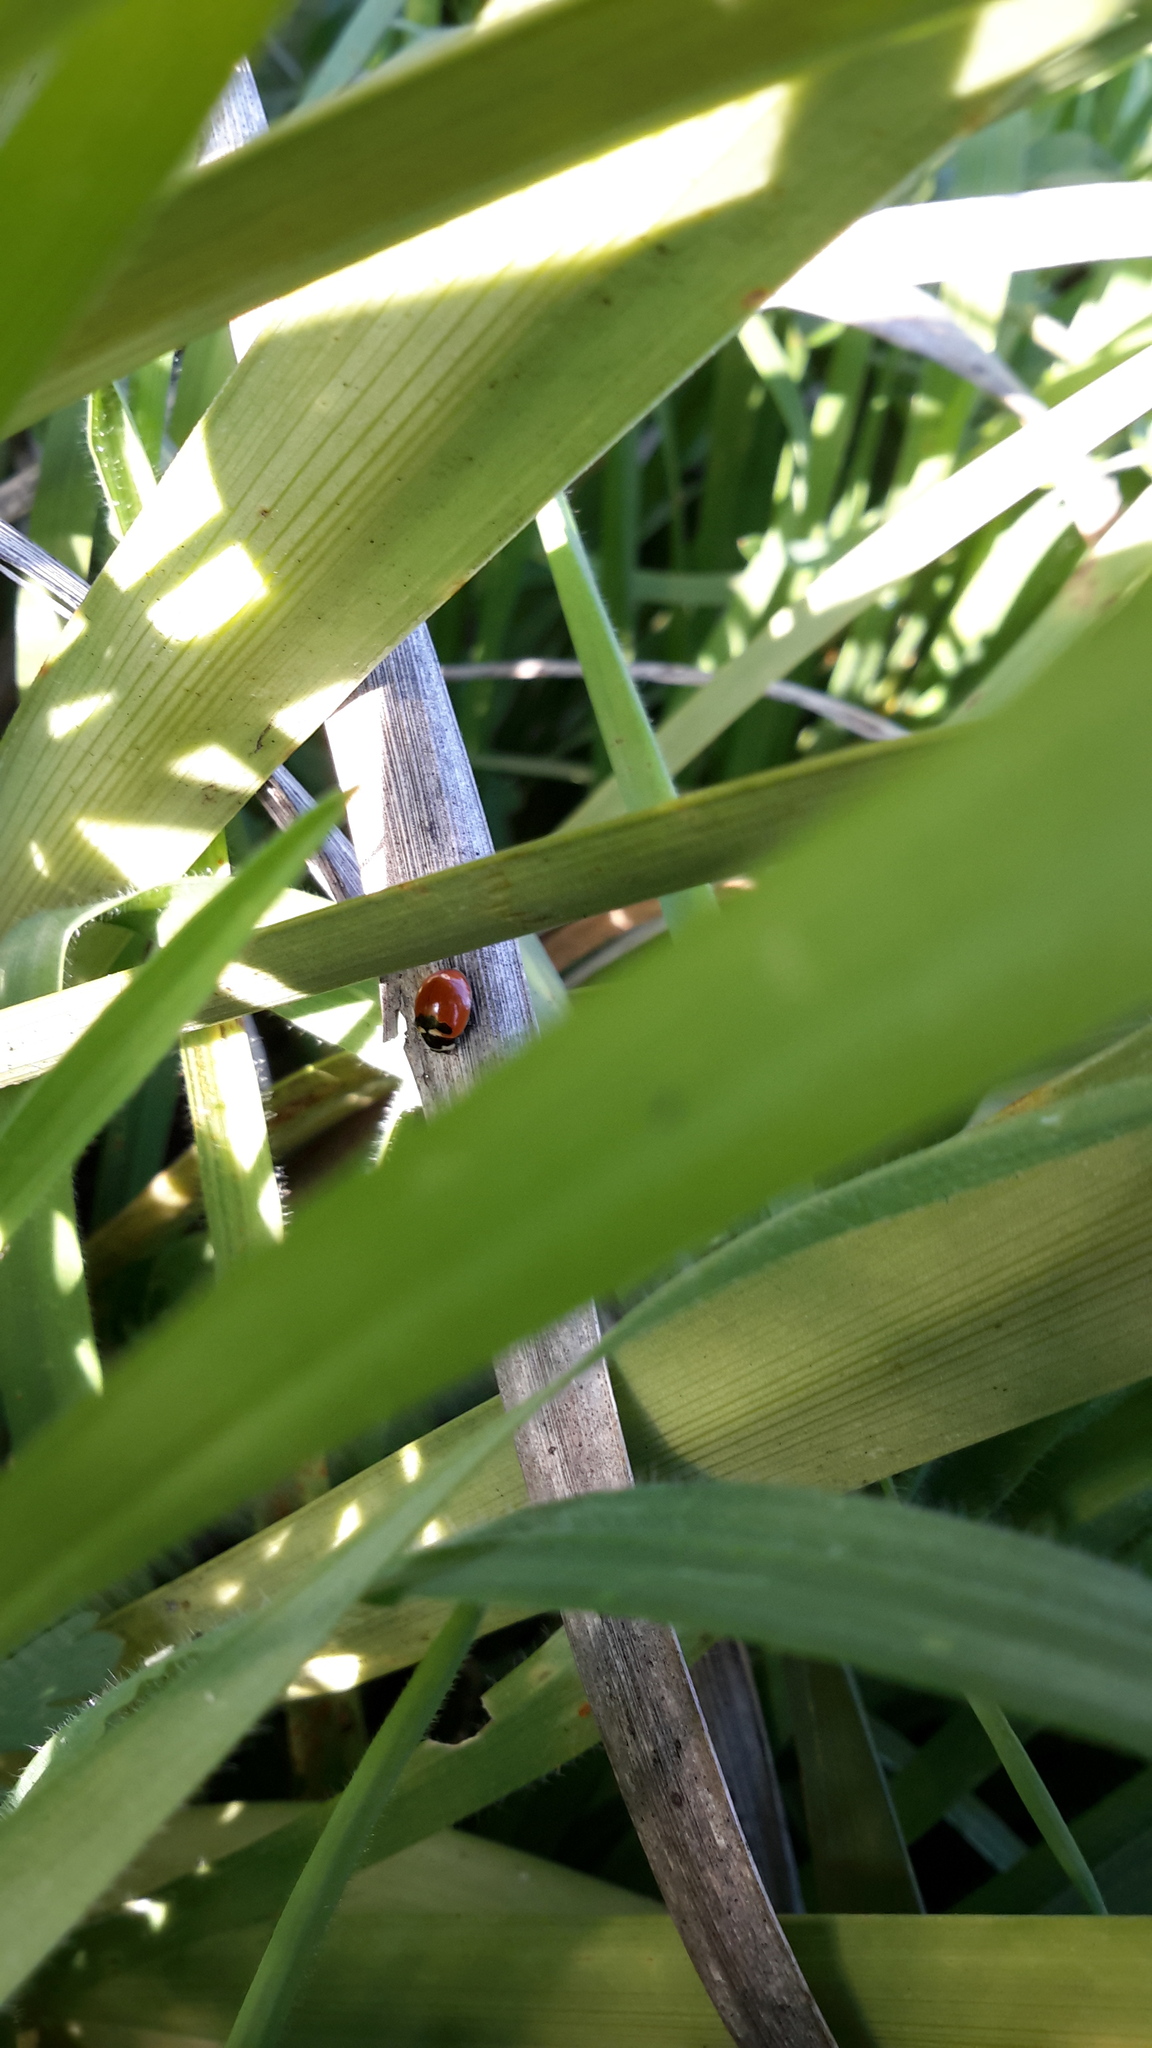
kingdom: Animalia
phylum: Arthropoda
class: Insecta
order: Coleoptera
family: Coccinellidae
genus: Coccinella
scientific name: Coccinella trifasciata
